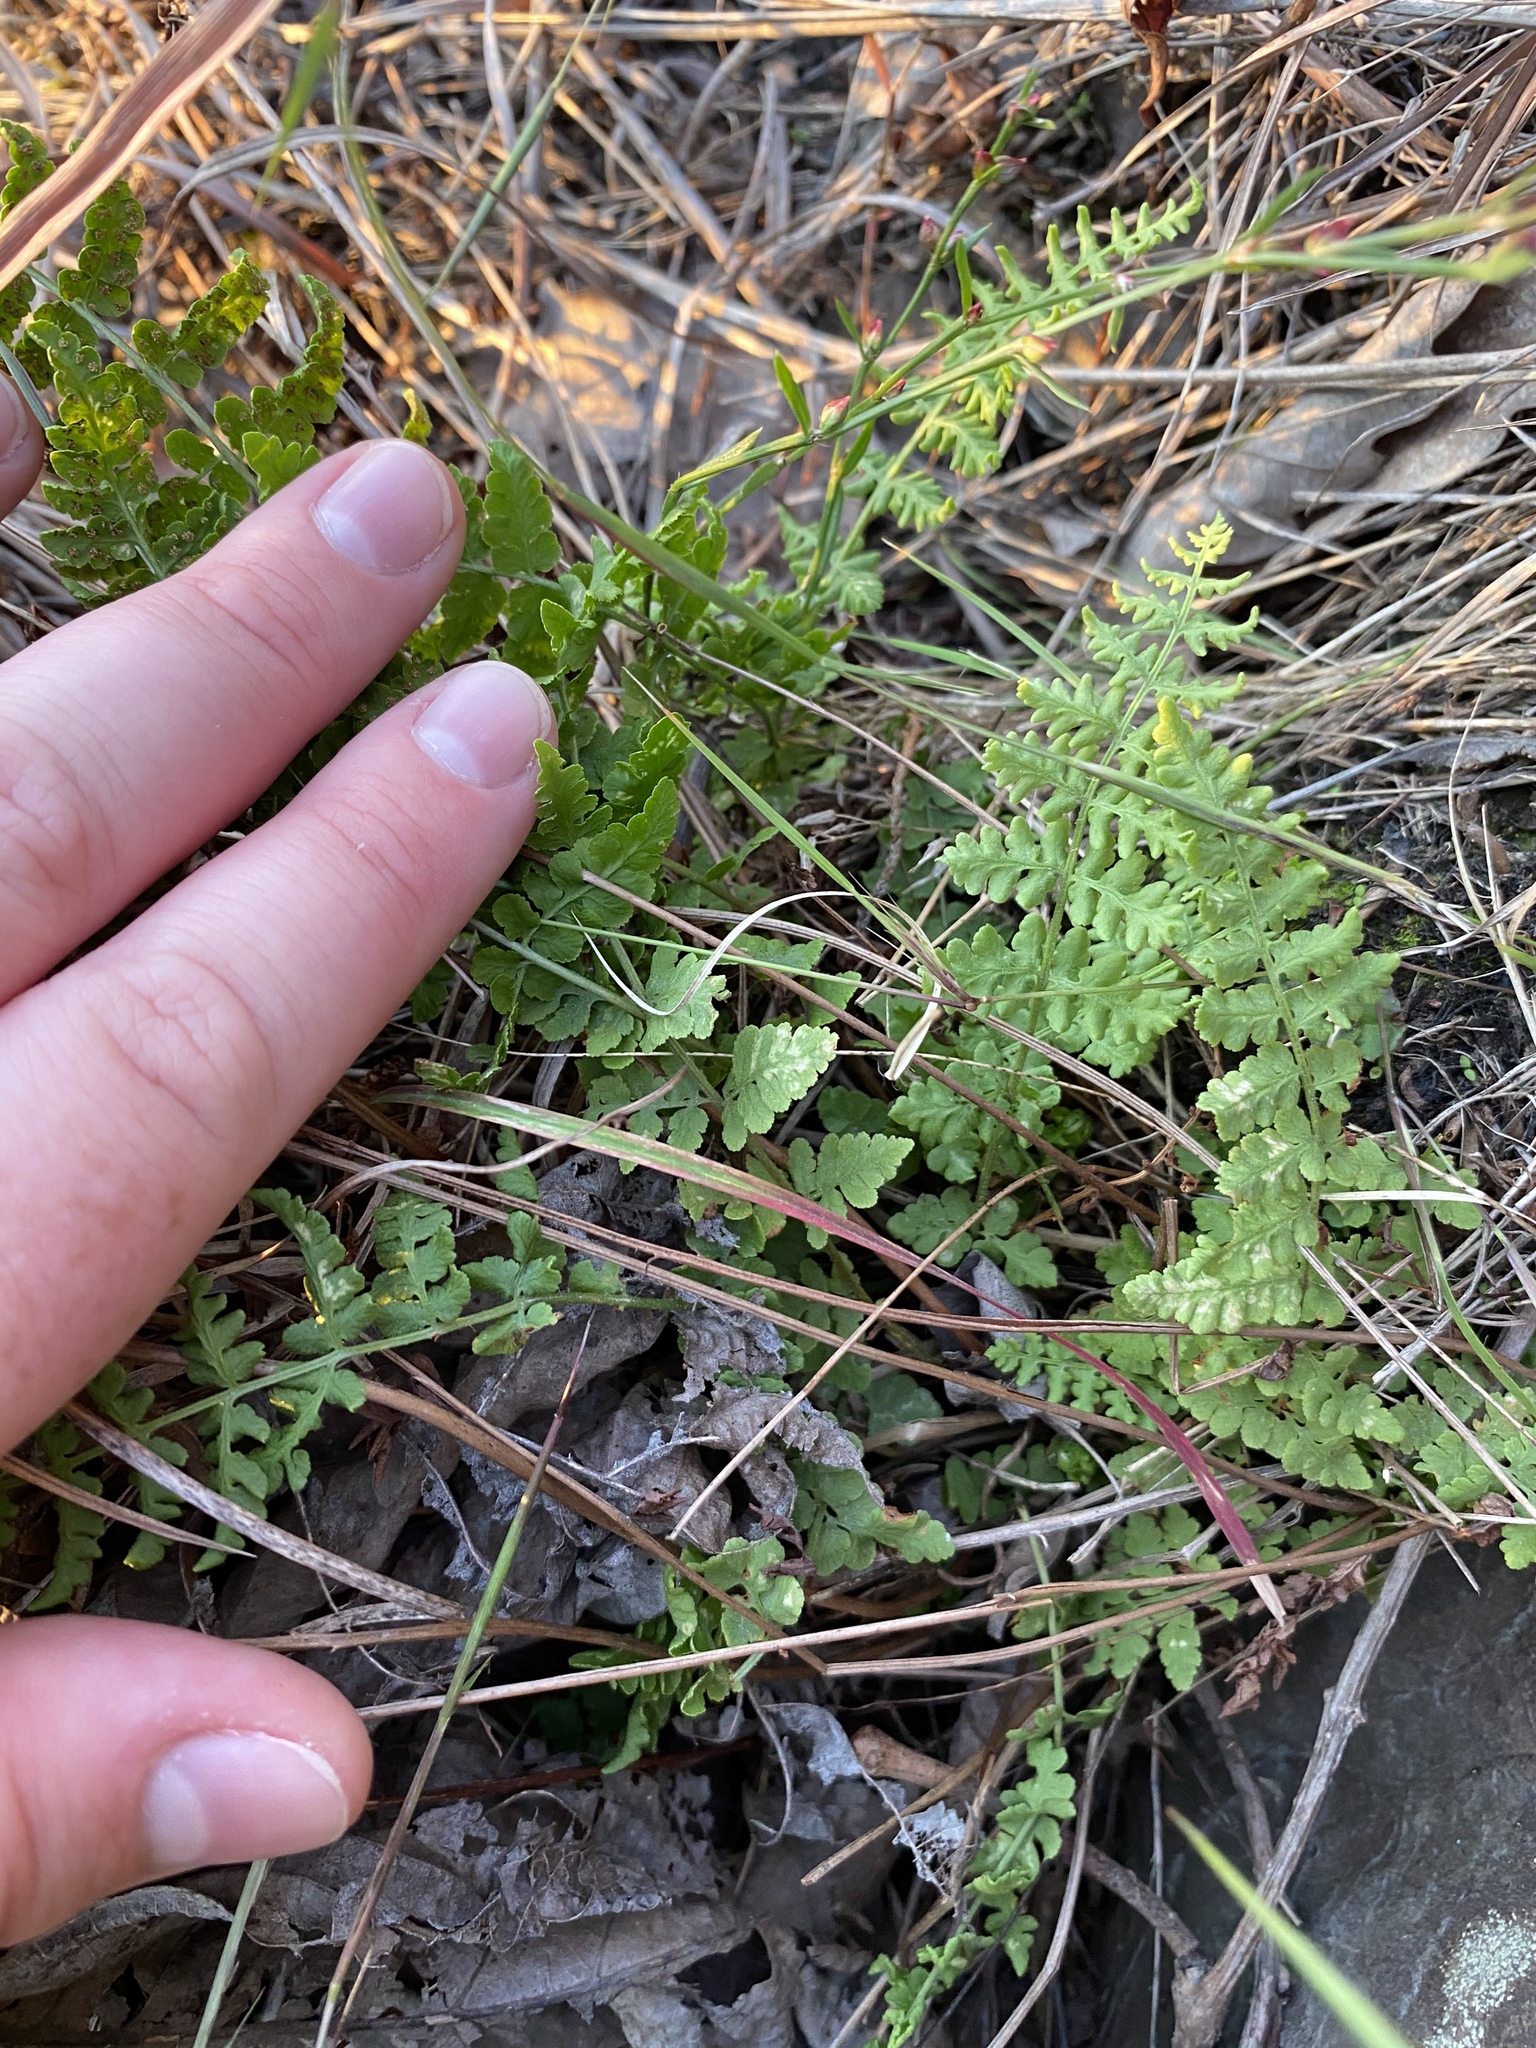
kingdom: Plantae
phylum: Tracheophyta
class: Polypodiopsida
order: Polypodiales
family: Woodsiaceae
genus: Physematium
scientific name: Physematium obtusum
